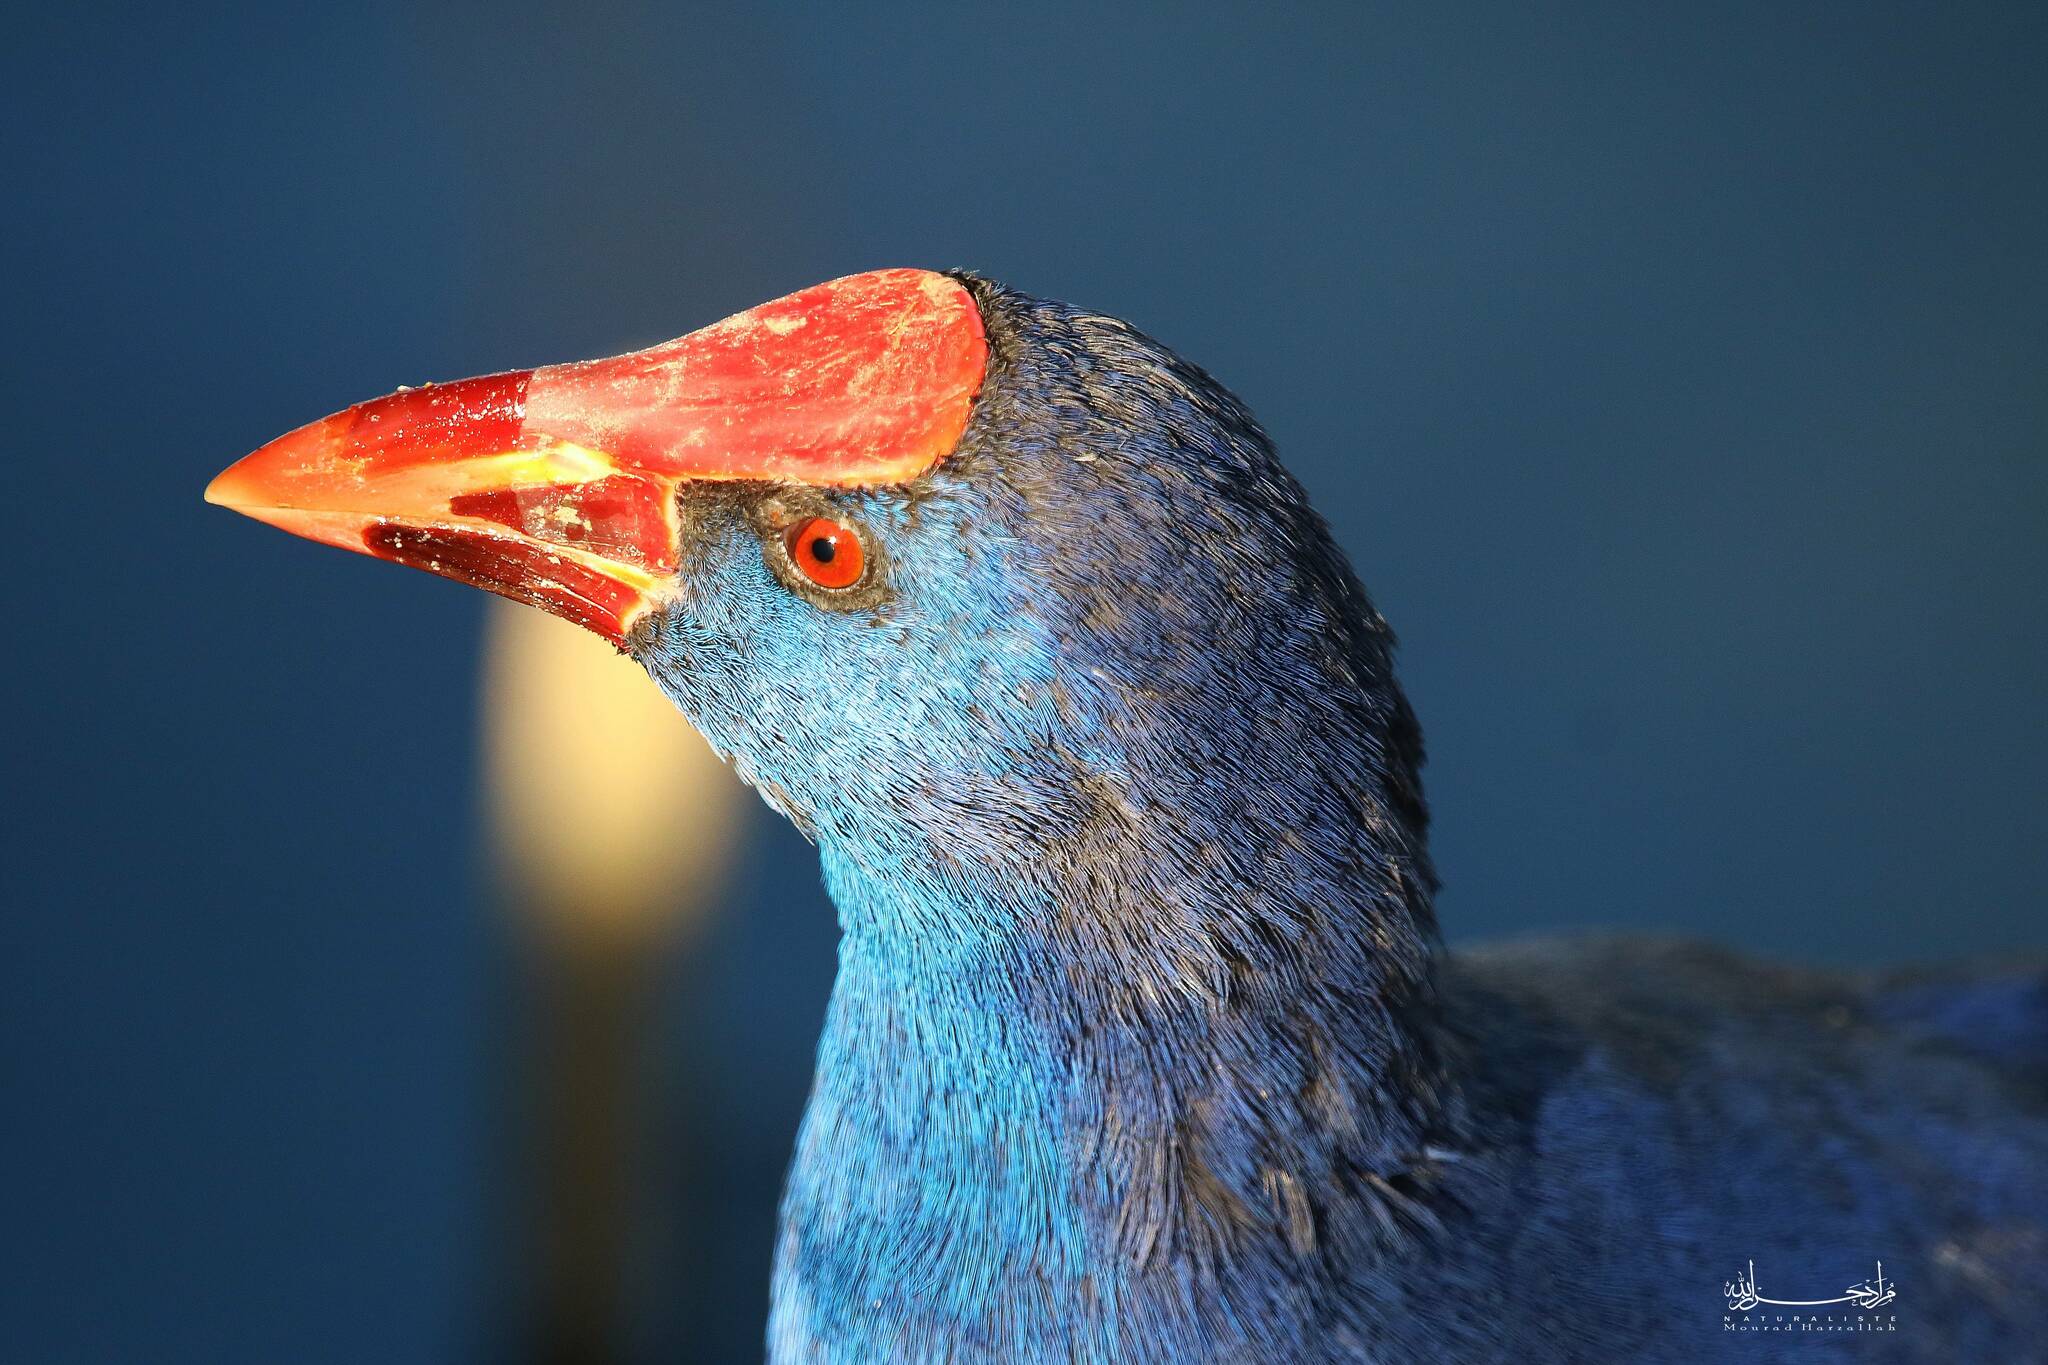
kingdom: Animalia
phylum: Chordata
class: Aves
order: Gruiformes
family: Rallidae
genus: Porphyrio
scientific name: Porphyrio porphyrio
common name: Purple swamphen
